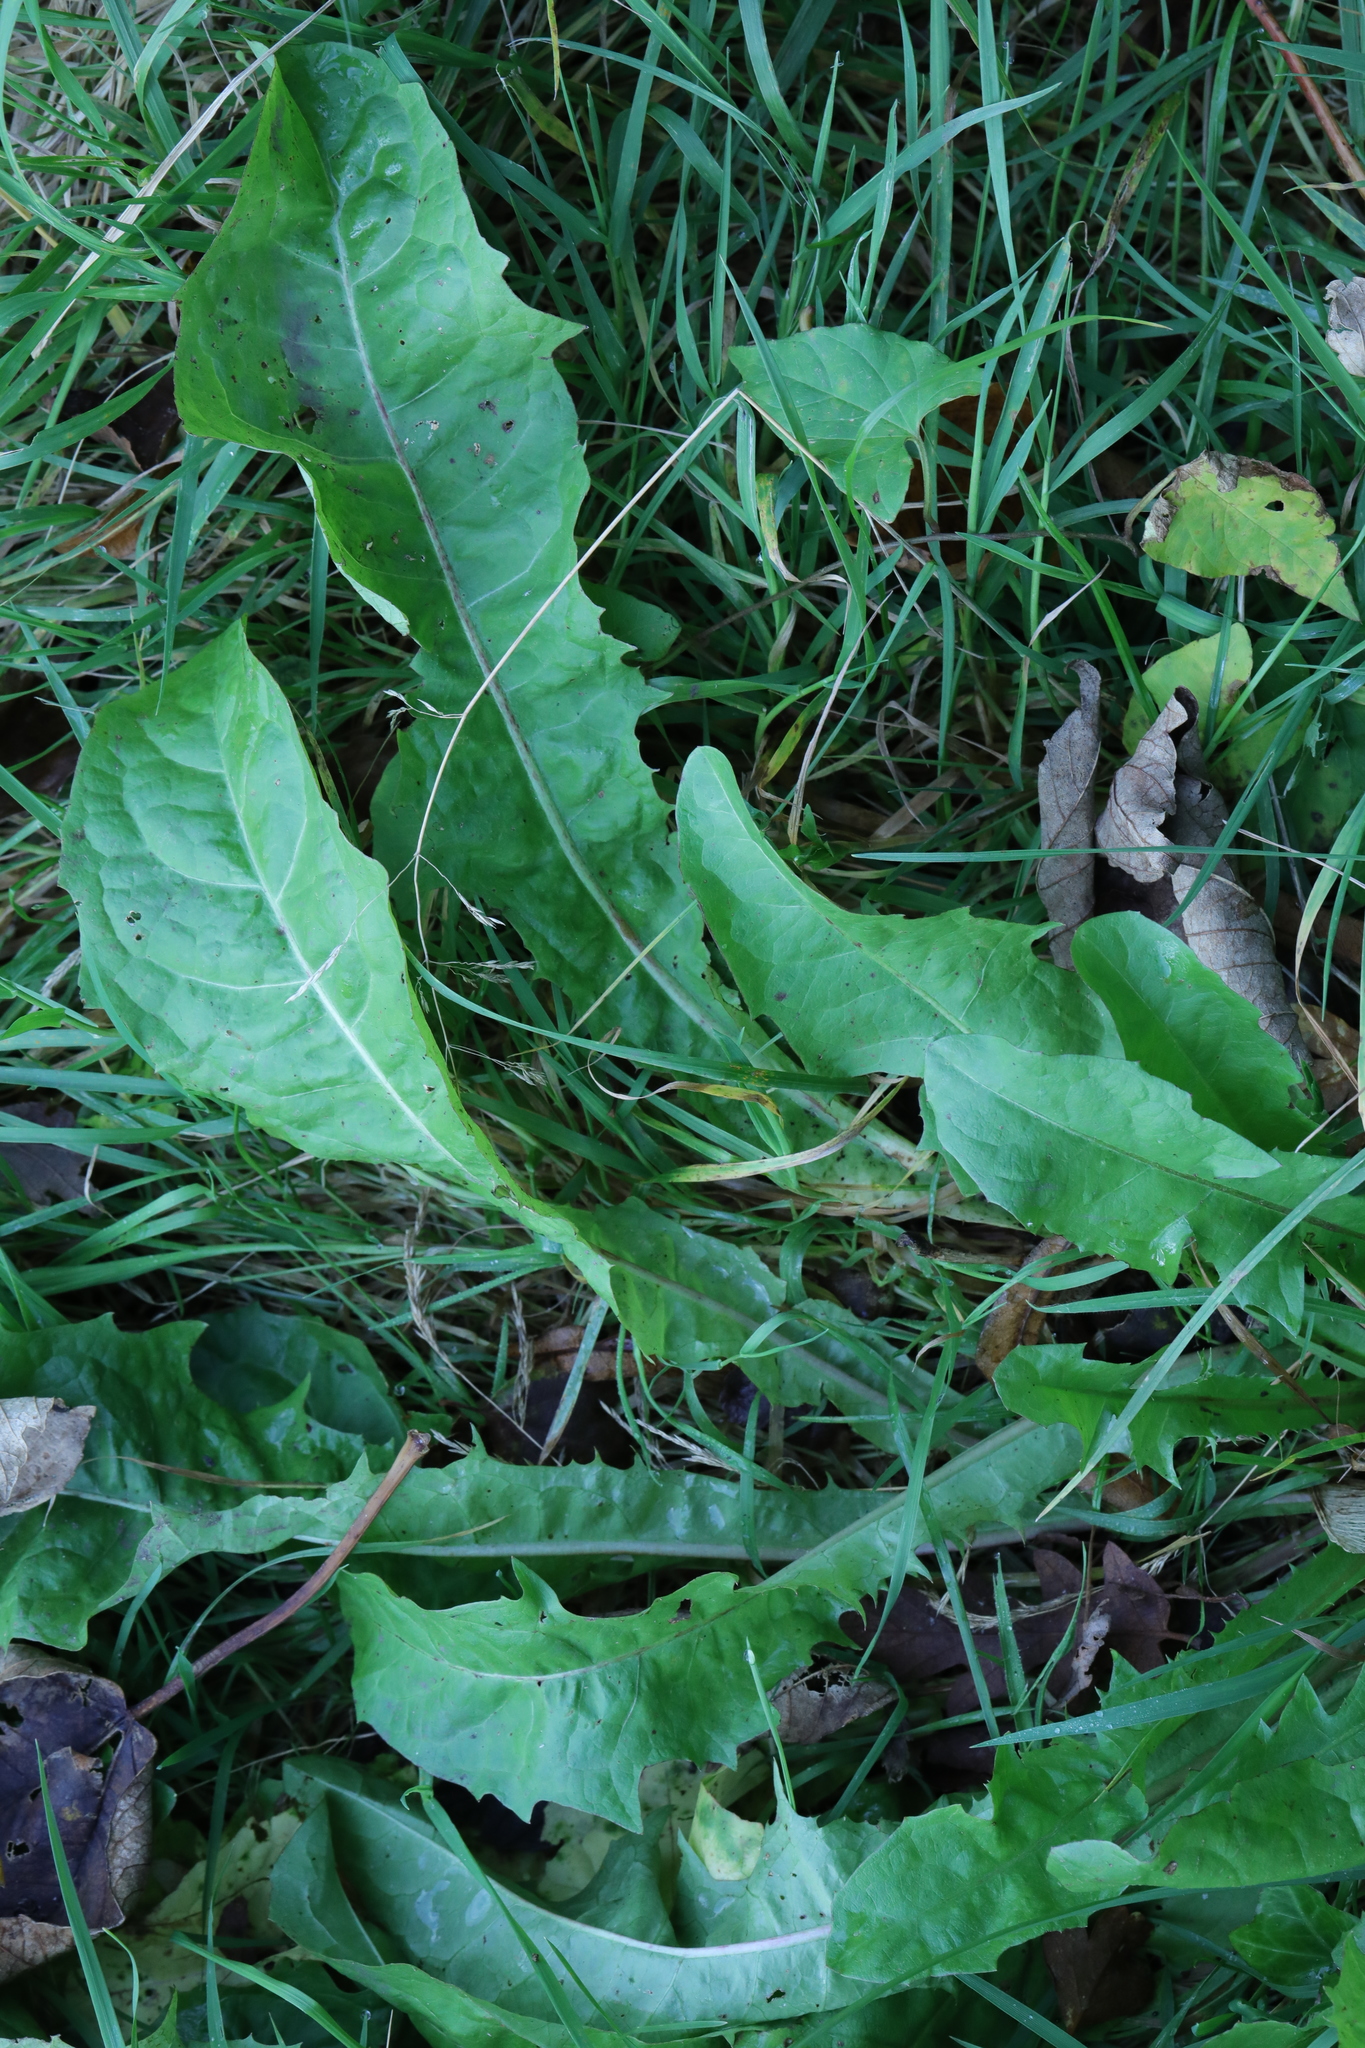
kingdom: Plantae
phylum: Tracheophyta
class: Magnoliopsida
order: Asterales
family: Asteraceae
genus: Taraxacum
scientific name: Taraxacum officinale
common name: Common dandelion
